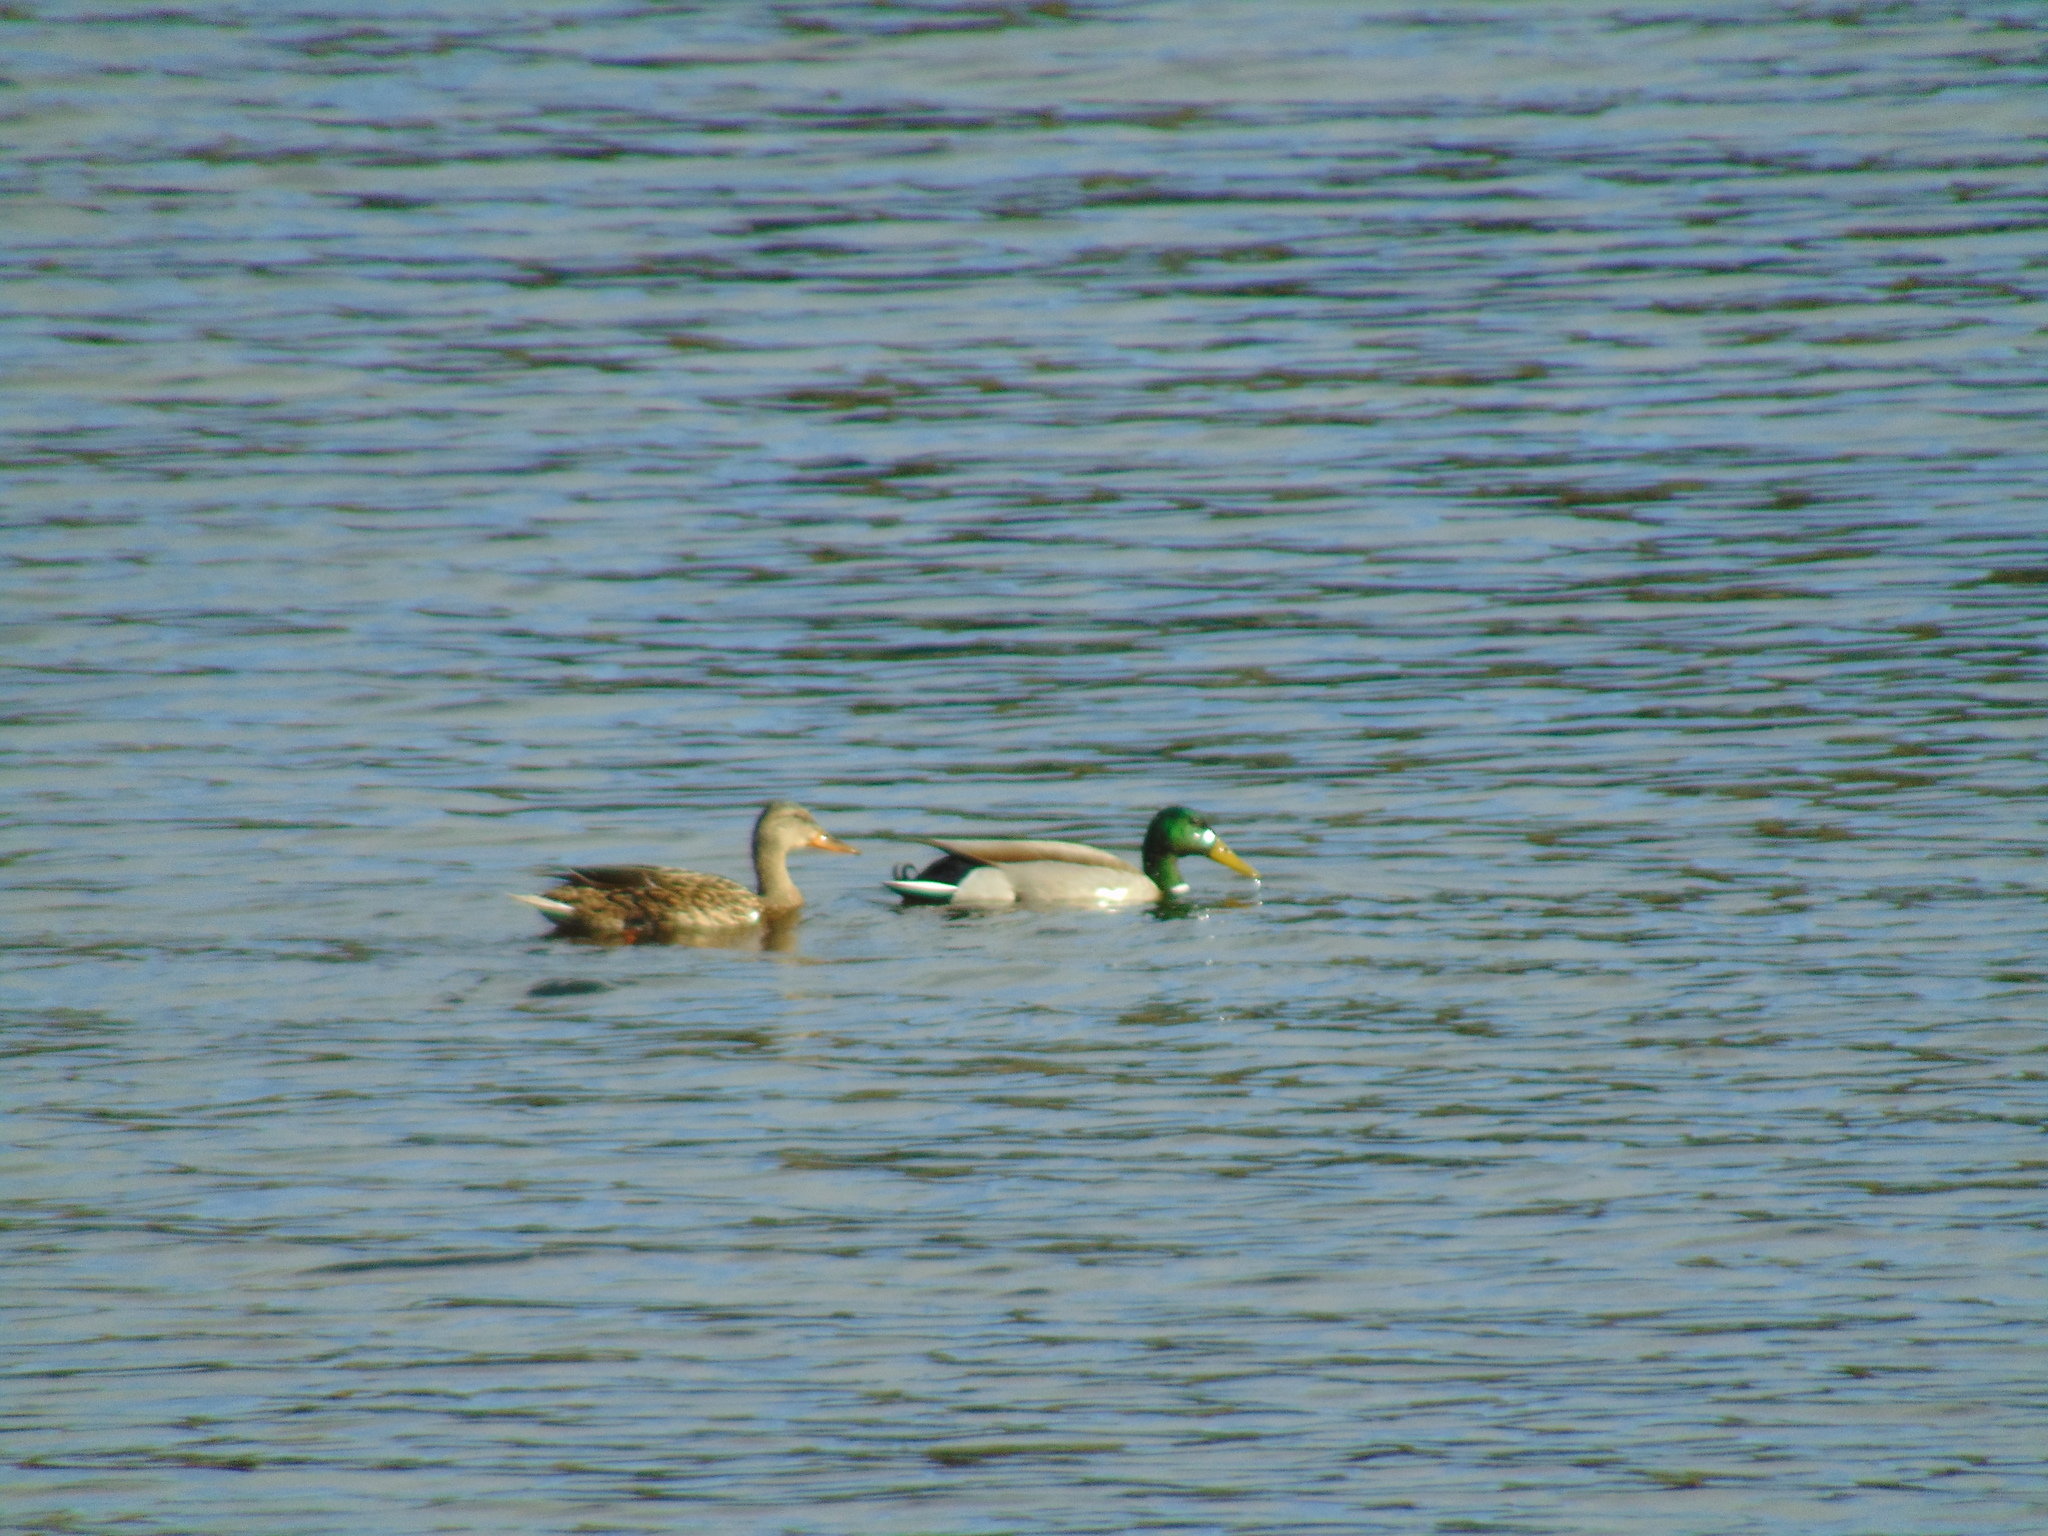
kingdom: Animalia
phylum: Chordata
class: Aves
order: Anseriformes
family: Anatidae
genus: Anas
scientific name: Anas platyrhynchos
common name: Mallard
